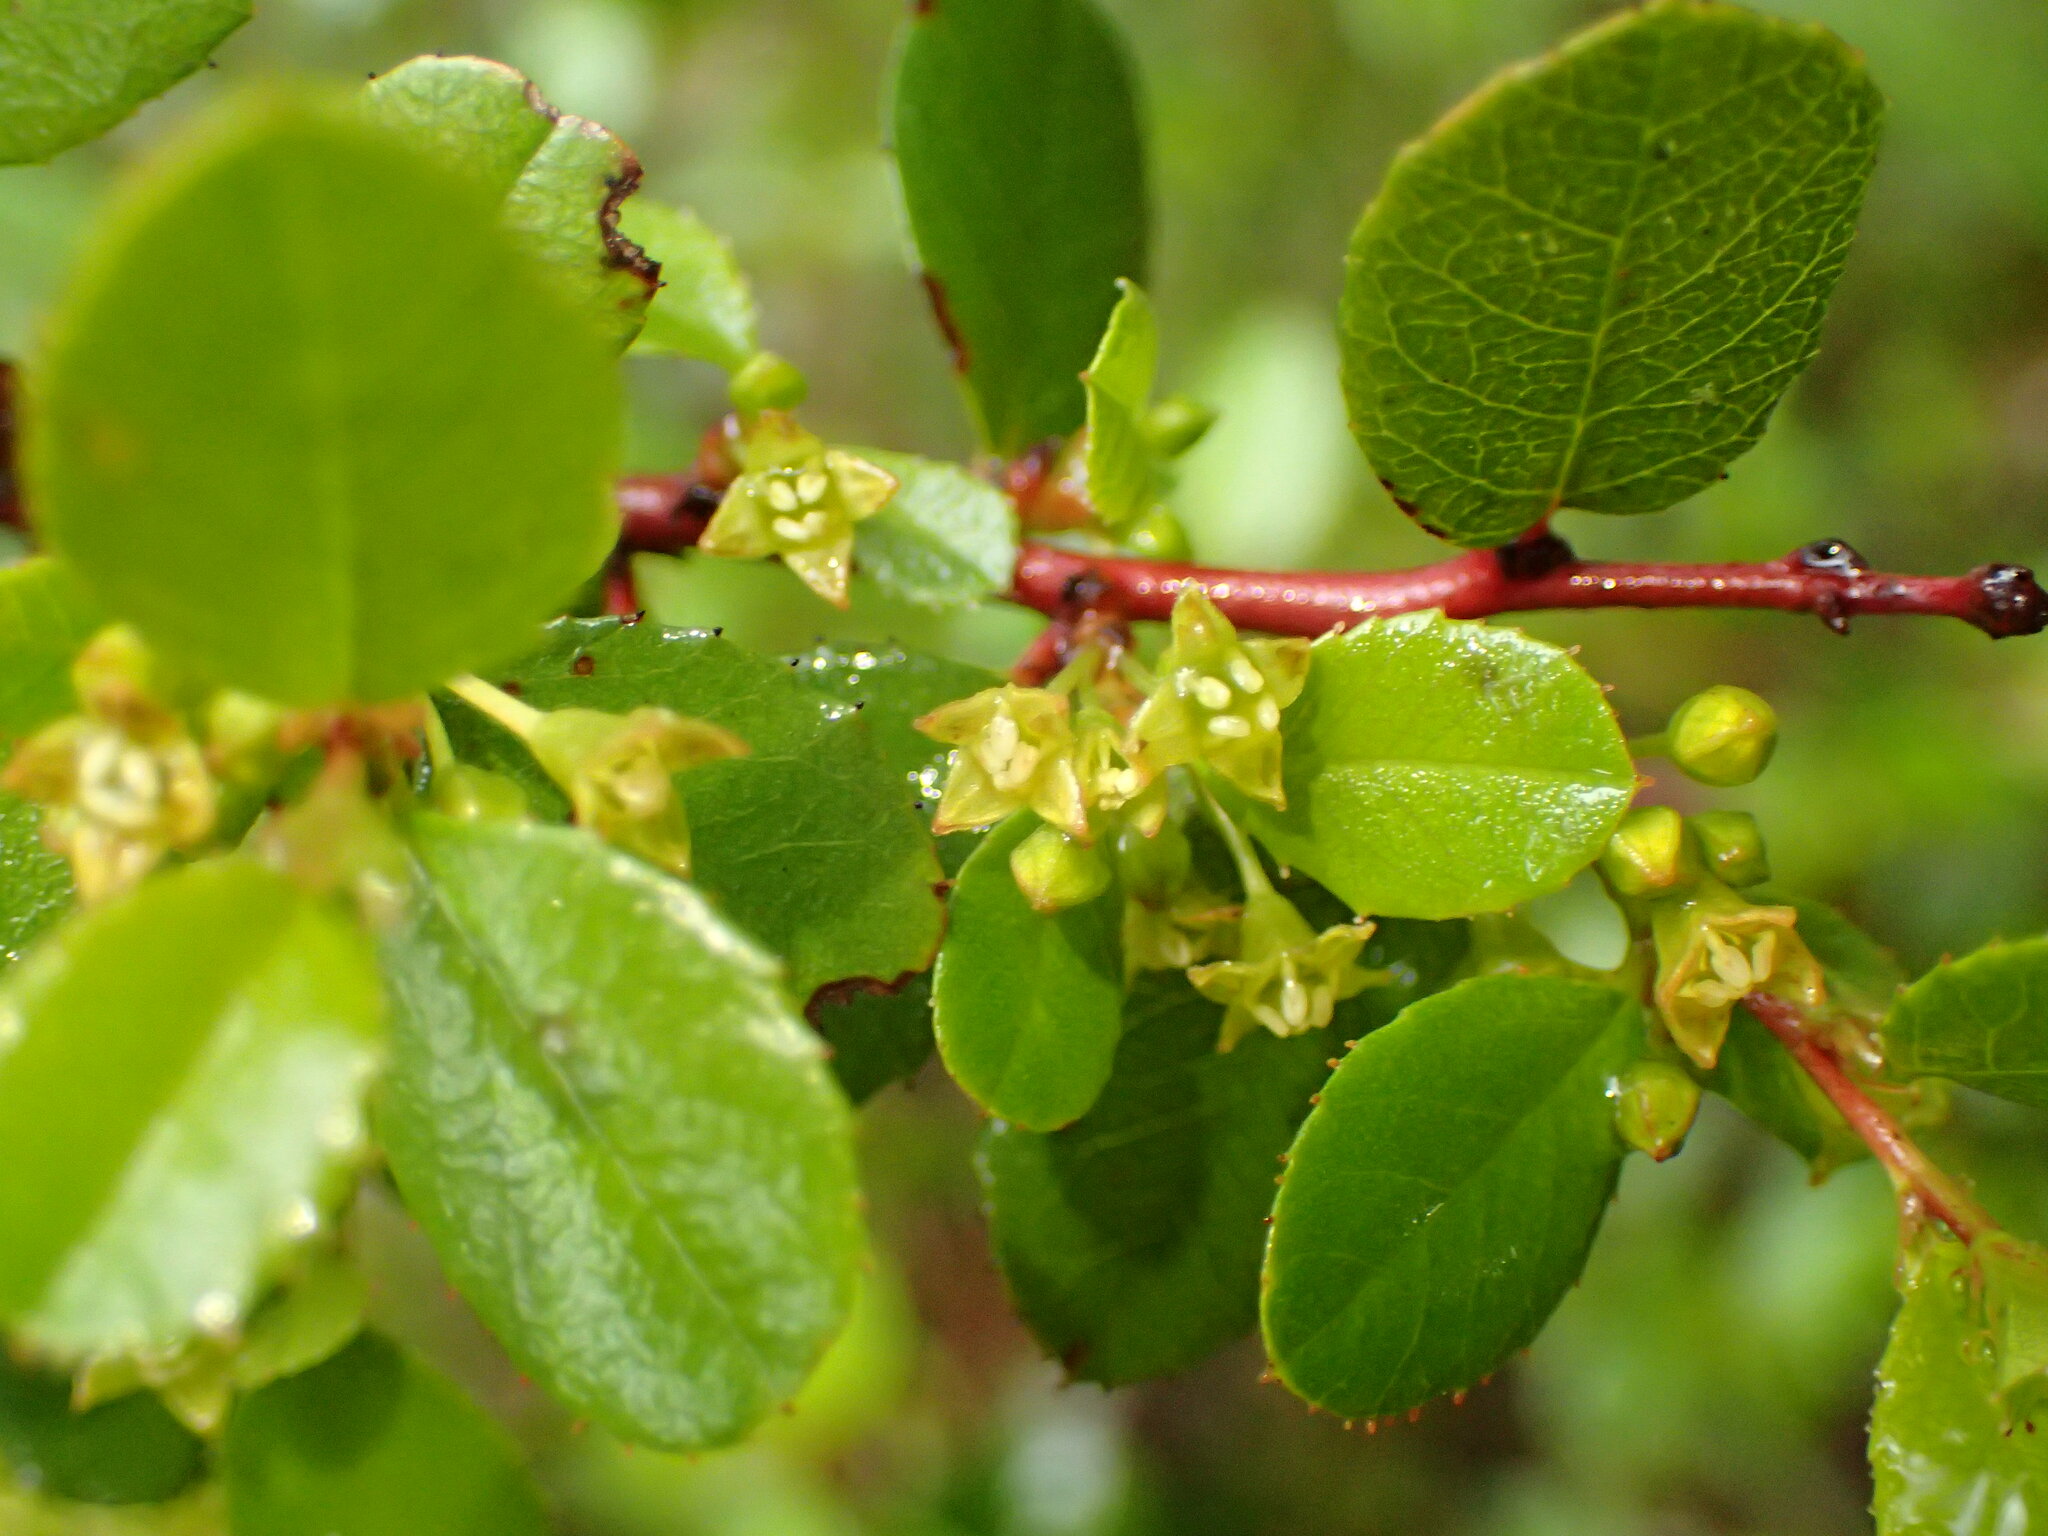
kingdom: Plantae
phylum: Tracheophyta
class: Magnoliopsida
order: Rosales
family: Rhamnaceae
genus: Endotropis
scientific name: Endotropis crocea
